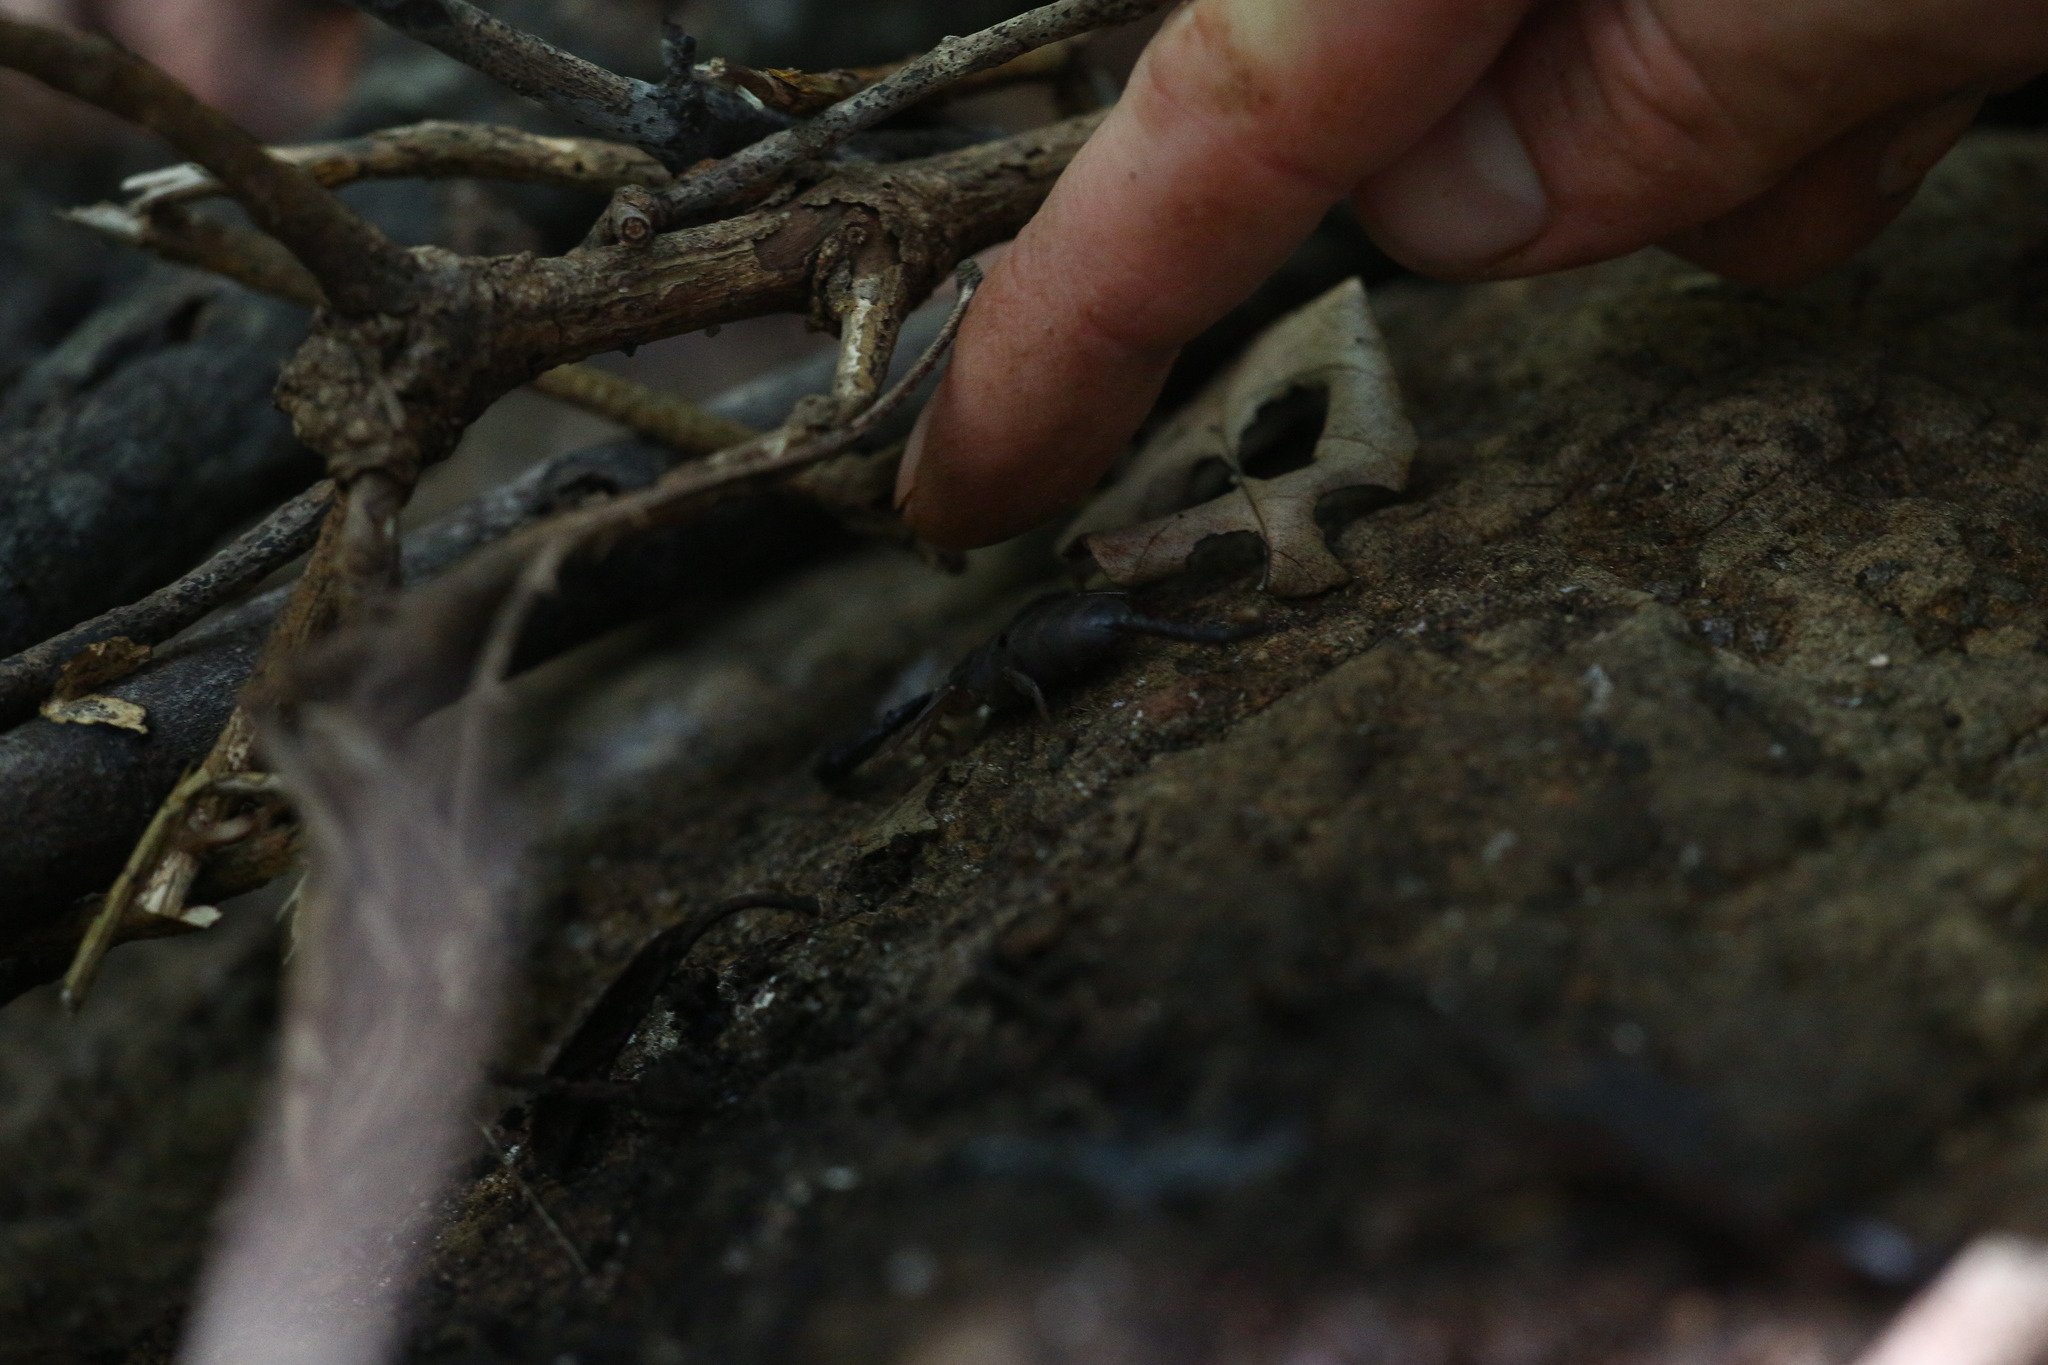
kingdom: Animalia
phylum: Arthropoda
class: Arachnida
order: Scorpiones
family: Hormuridae
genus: Hormurus
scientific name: Hormurus neocaledonicus
